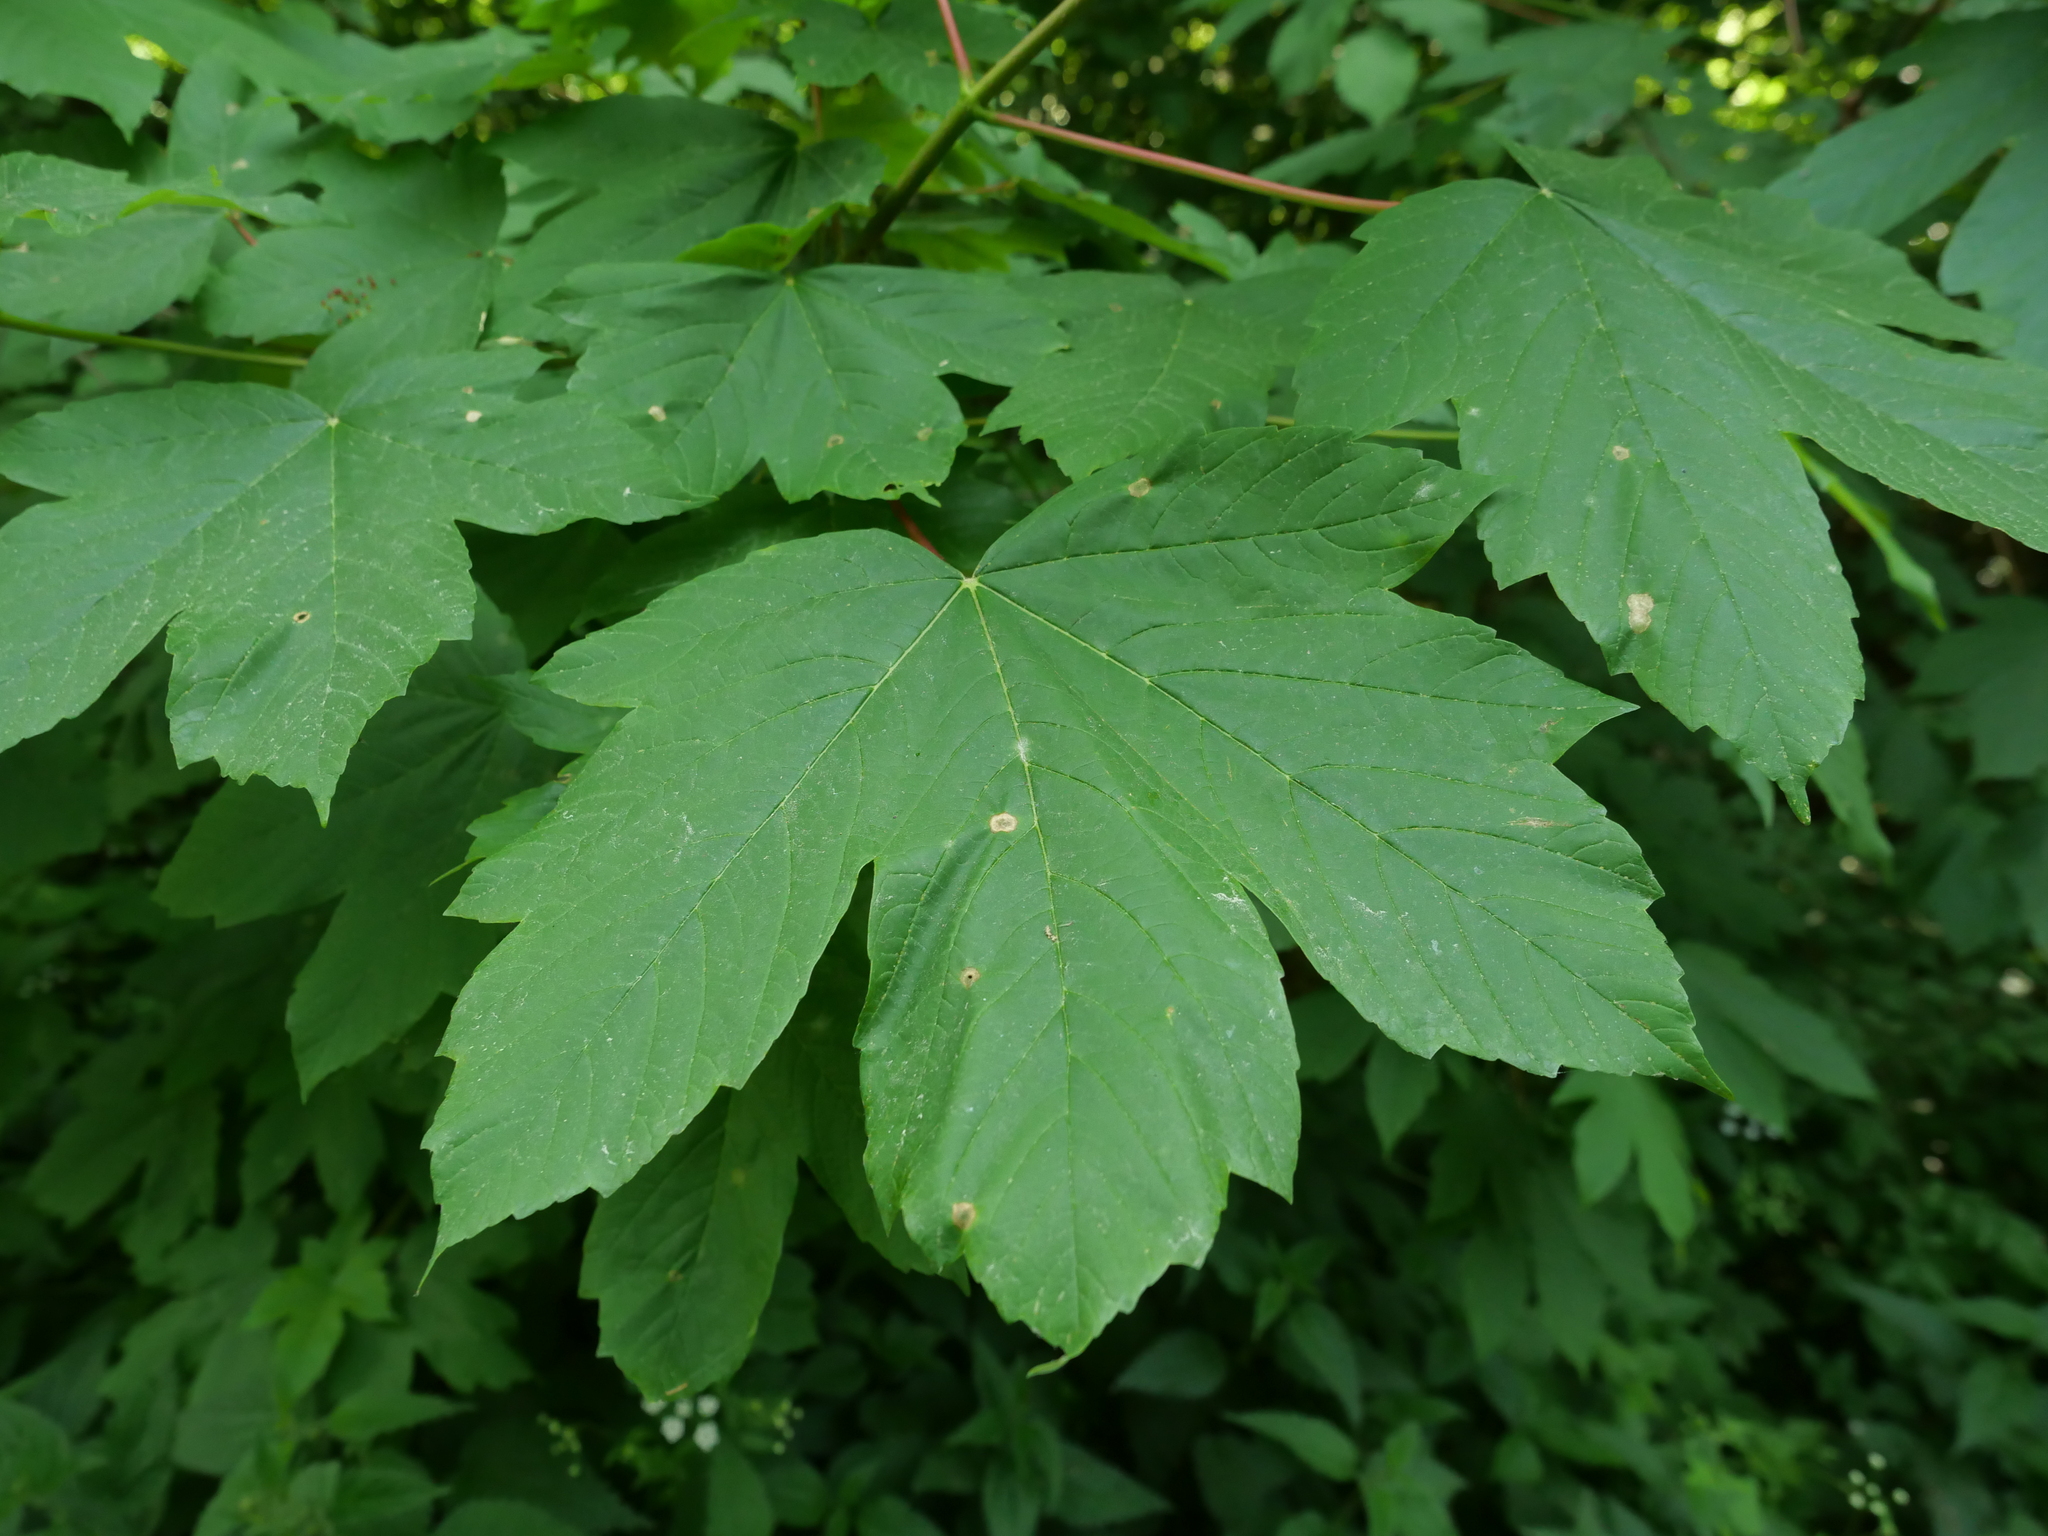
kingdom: Plantae
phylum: Tracheophyta
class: Magnoliopsida
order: Sapindales
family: Sapindaceae
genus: Acer
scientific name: Acer pseudoplatanus
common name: Sycamore
